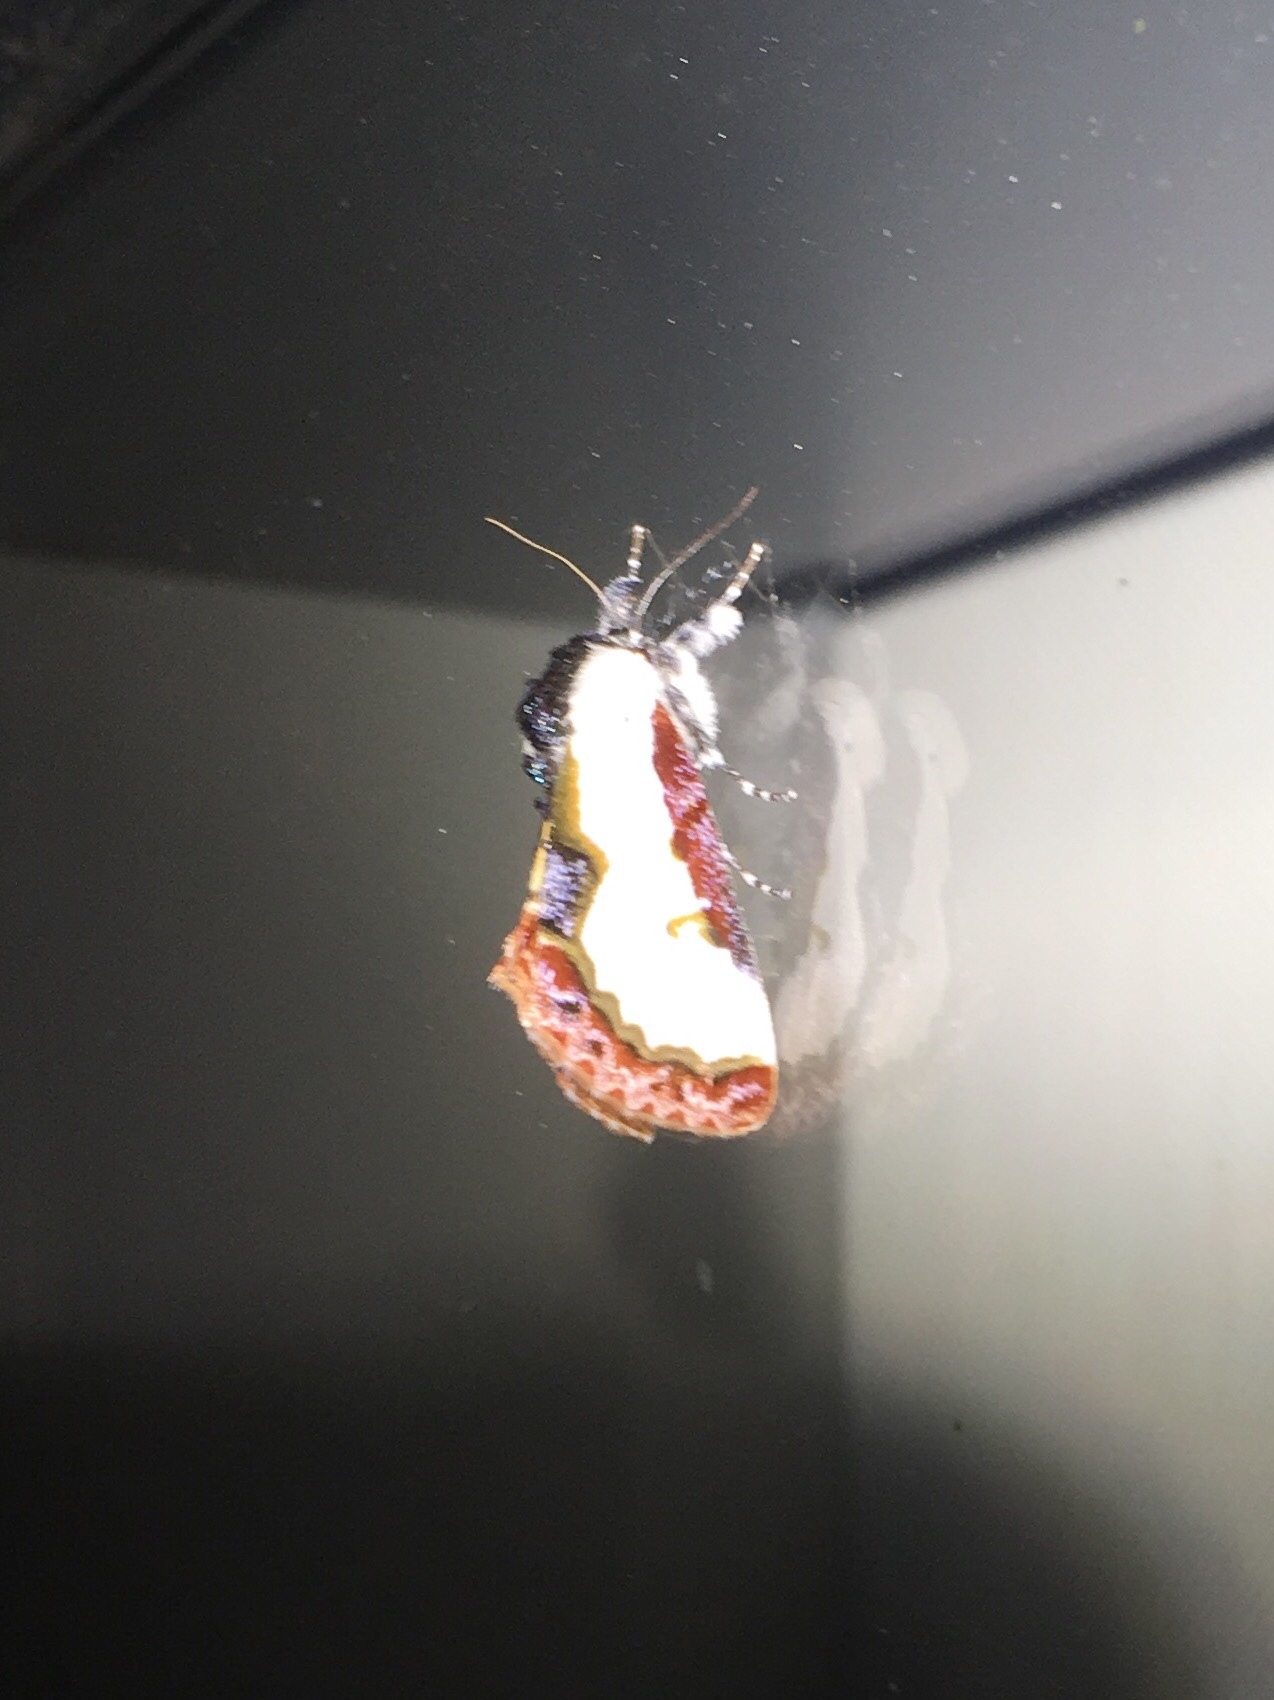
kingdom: Animalia
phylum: Arthropoda
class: Insecta
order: Lepidoptera
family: Noctuidae
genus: Eudryas
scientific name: Eudryas unio
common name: Pearly wood-nymph
